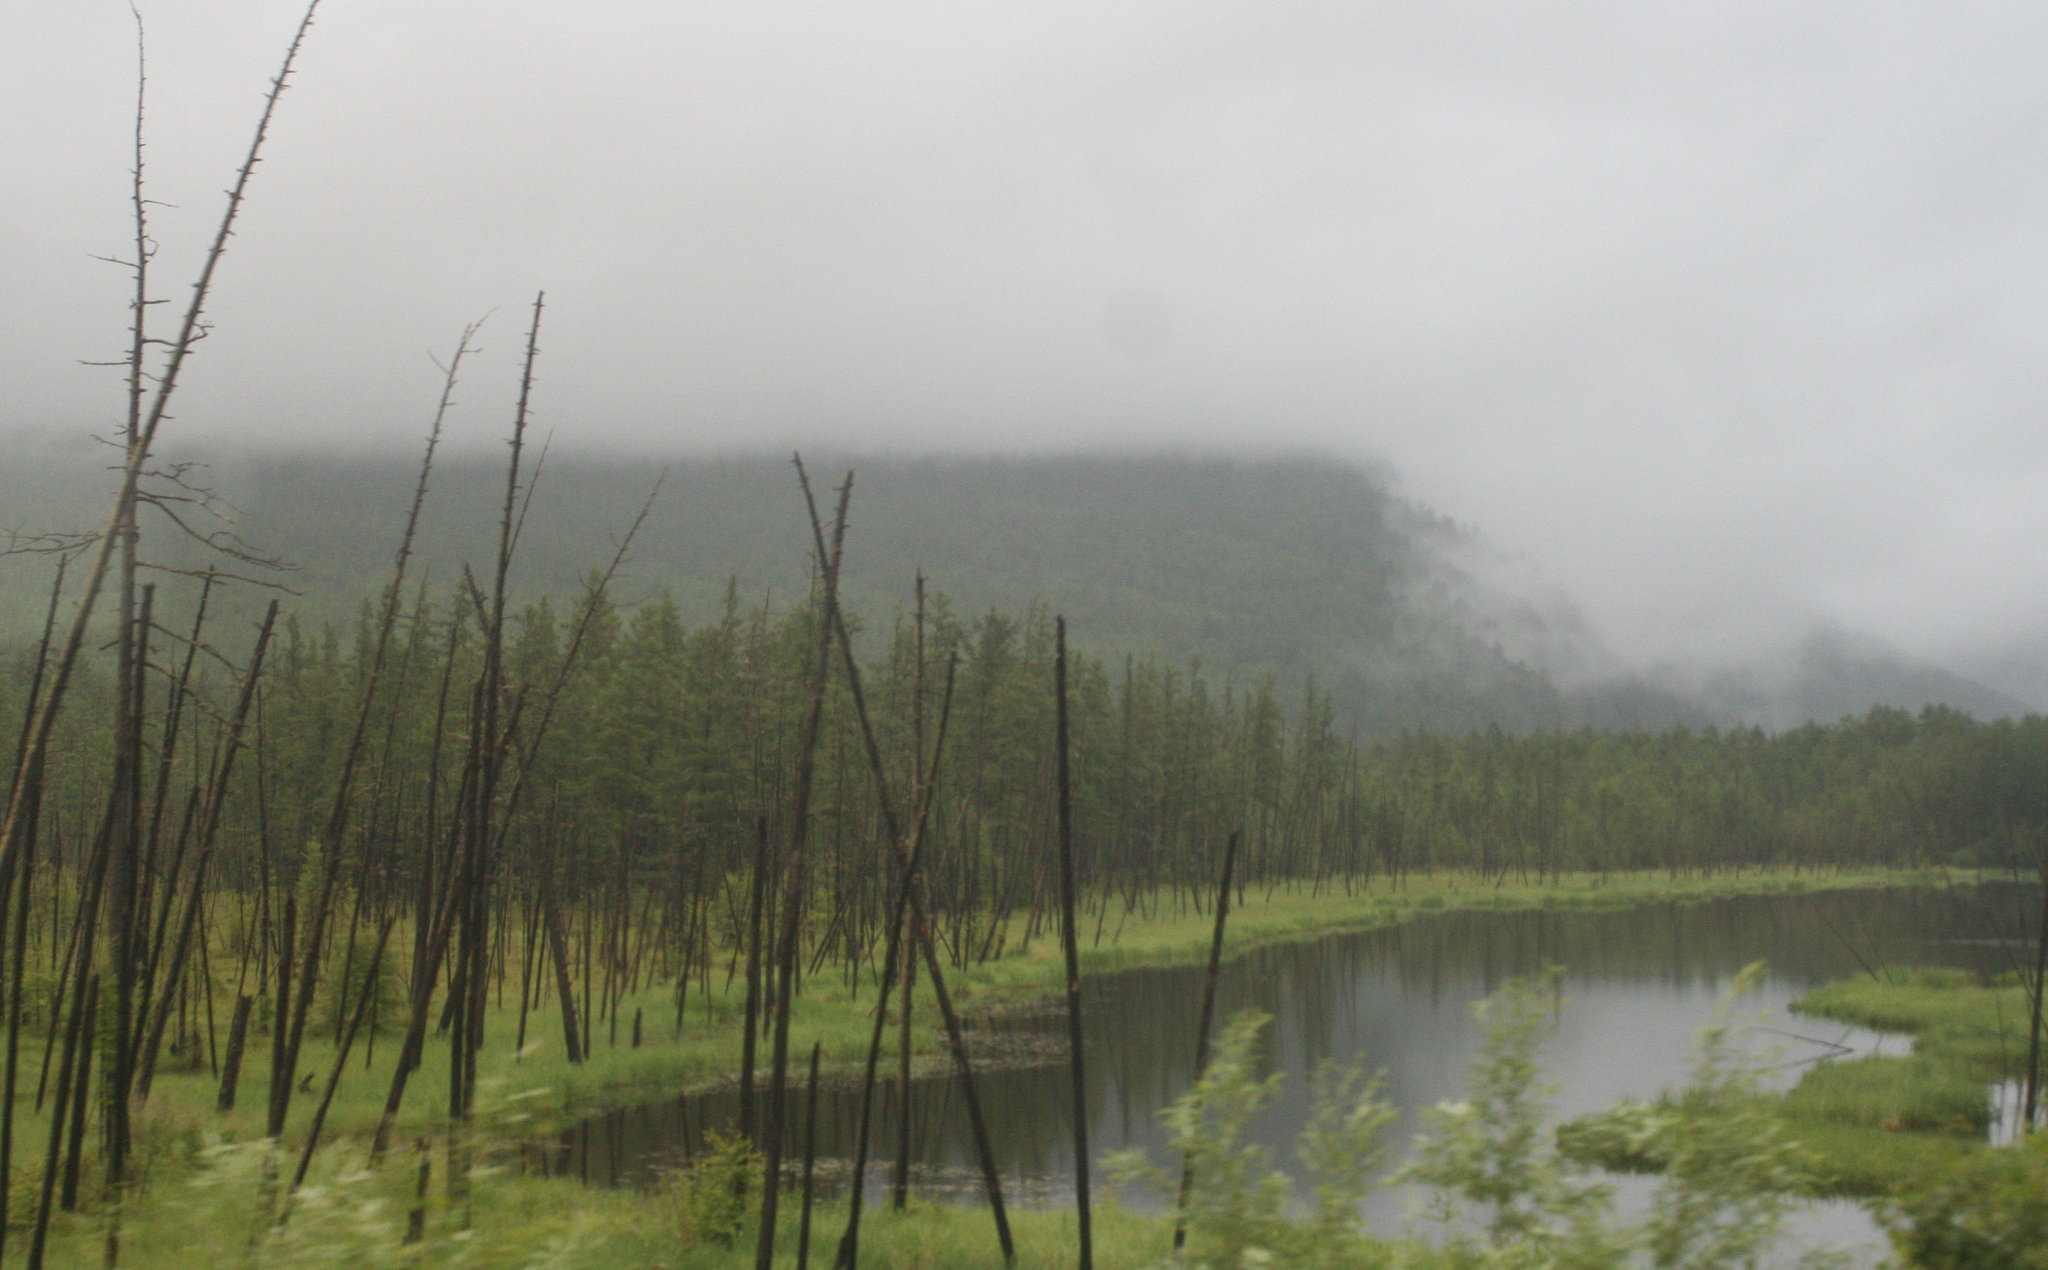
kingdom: Plantae
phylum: Tracheophyta
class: Pinopsida
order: Pinales
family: Pinaceae
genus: Larix
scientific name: Larix gmelinii
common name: Dahurian larch
